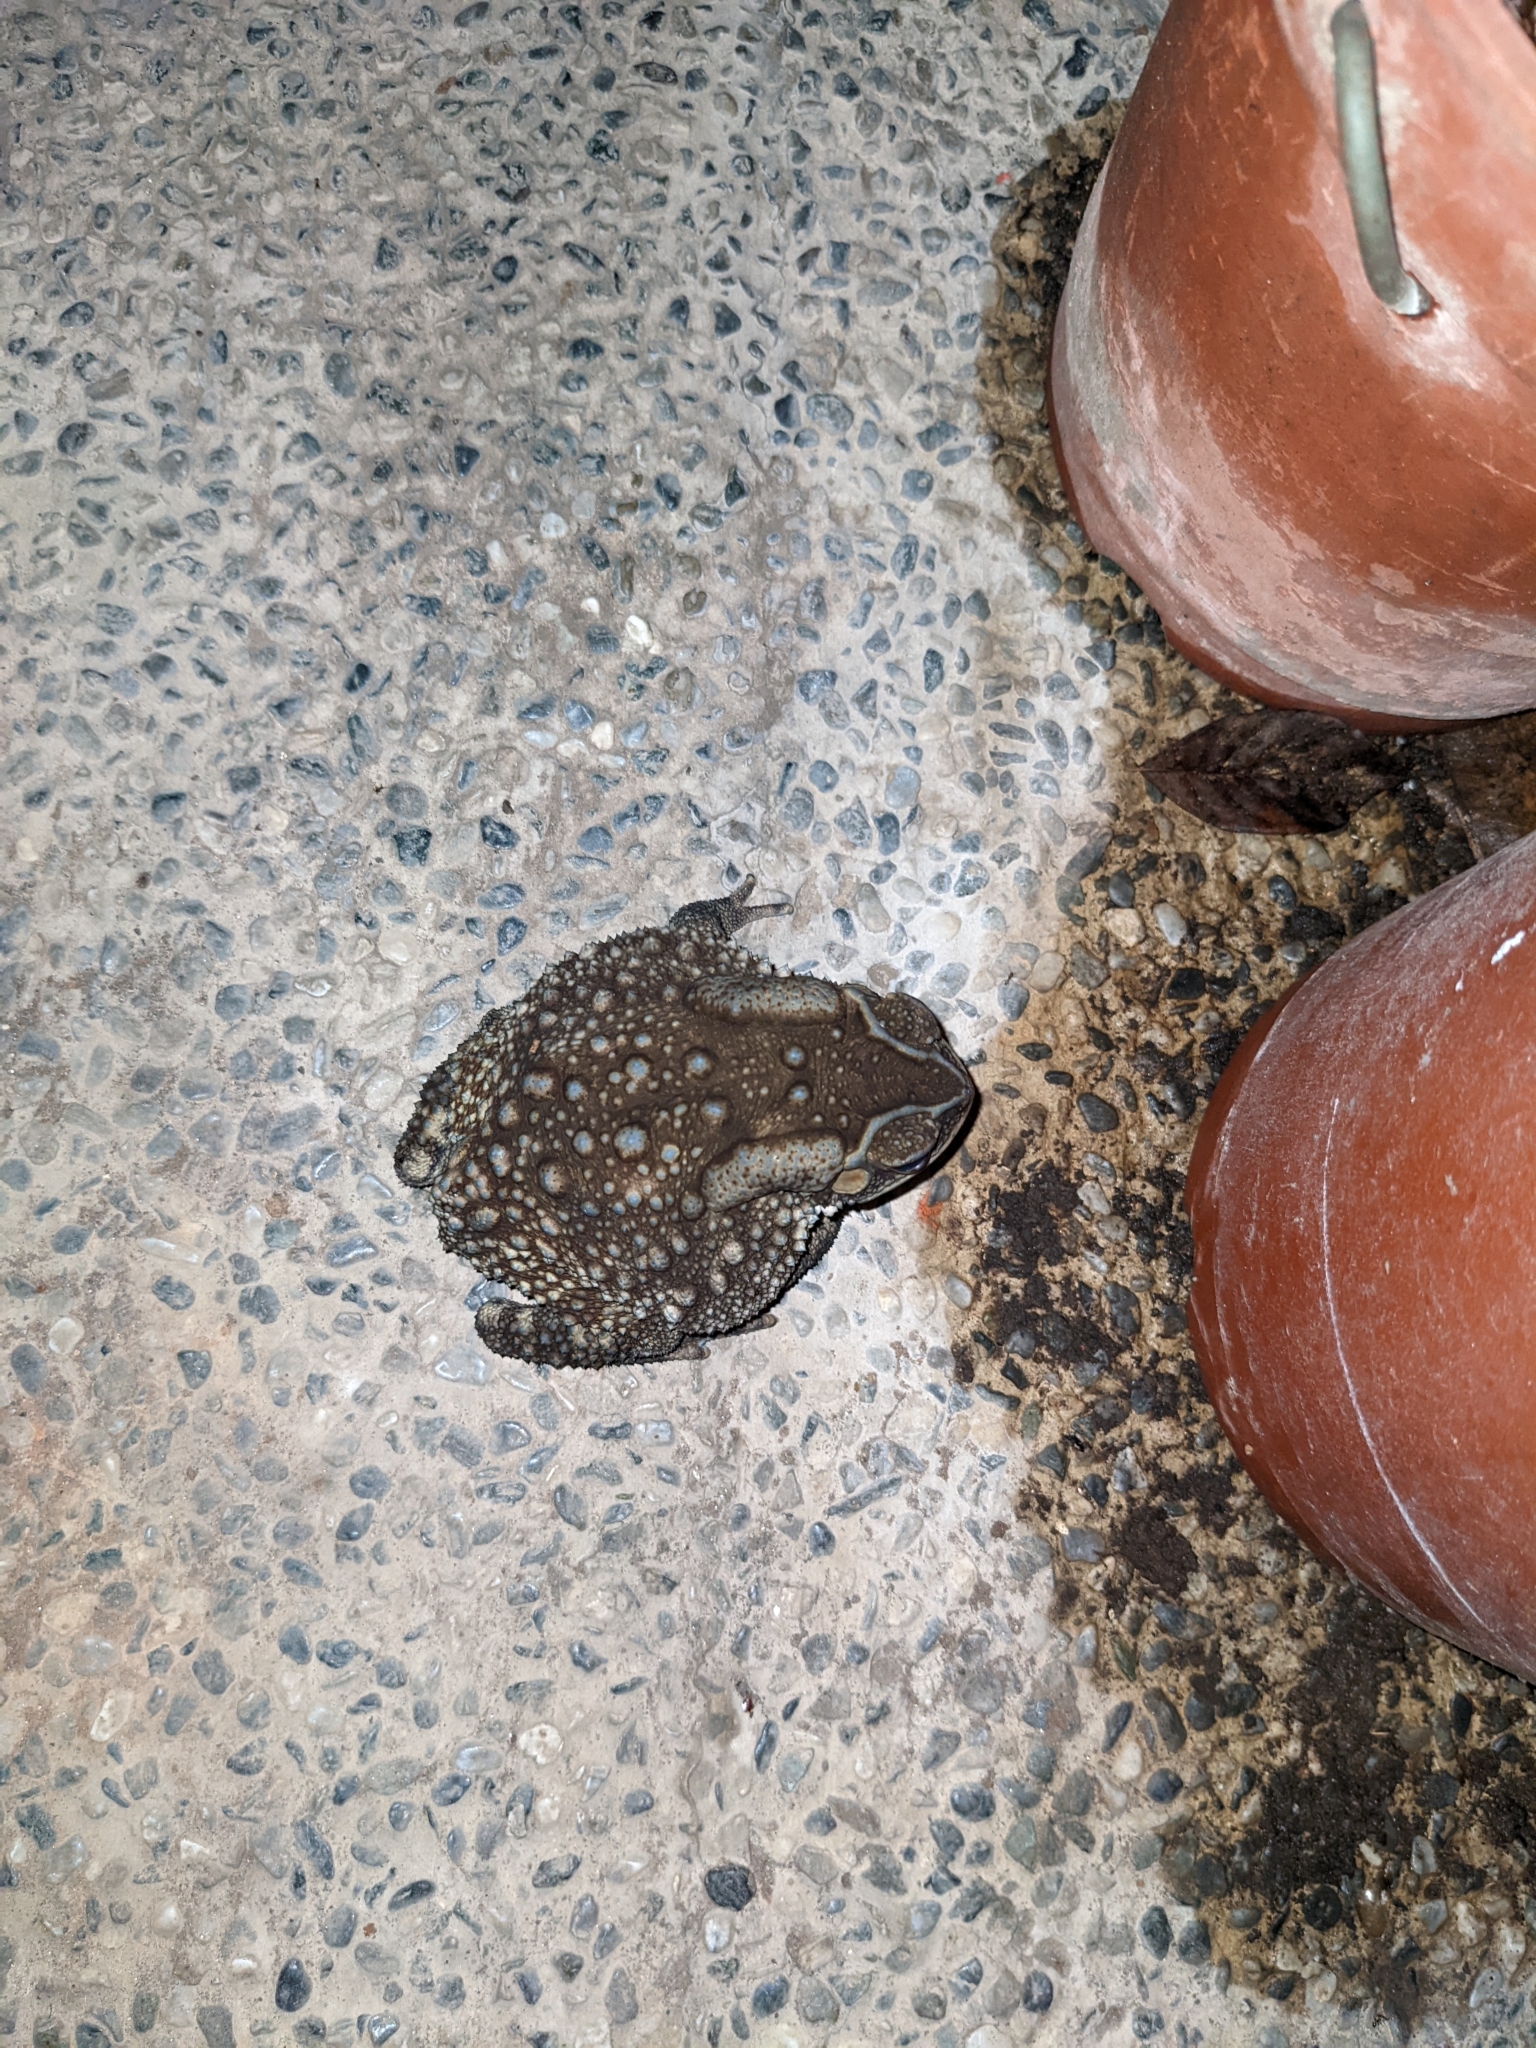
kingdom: Animalia
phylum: Chordata
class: Amphibia
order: Anura
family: Bufonidae
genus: Duttaphrynus
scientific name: Duttaphrynus melanostictus
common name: Common sunda toad
